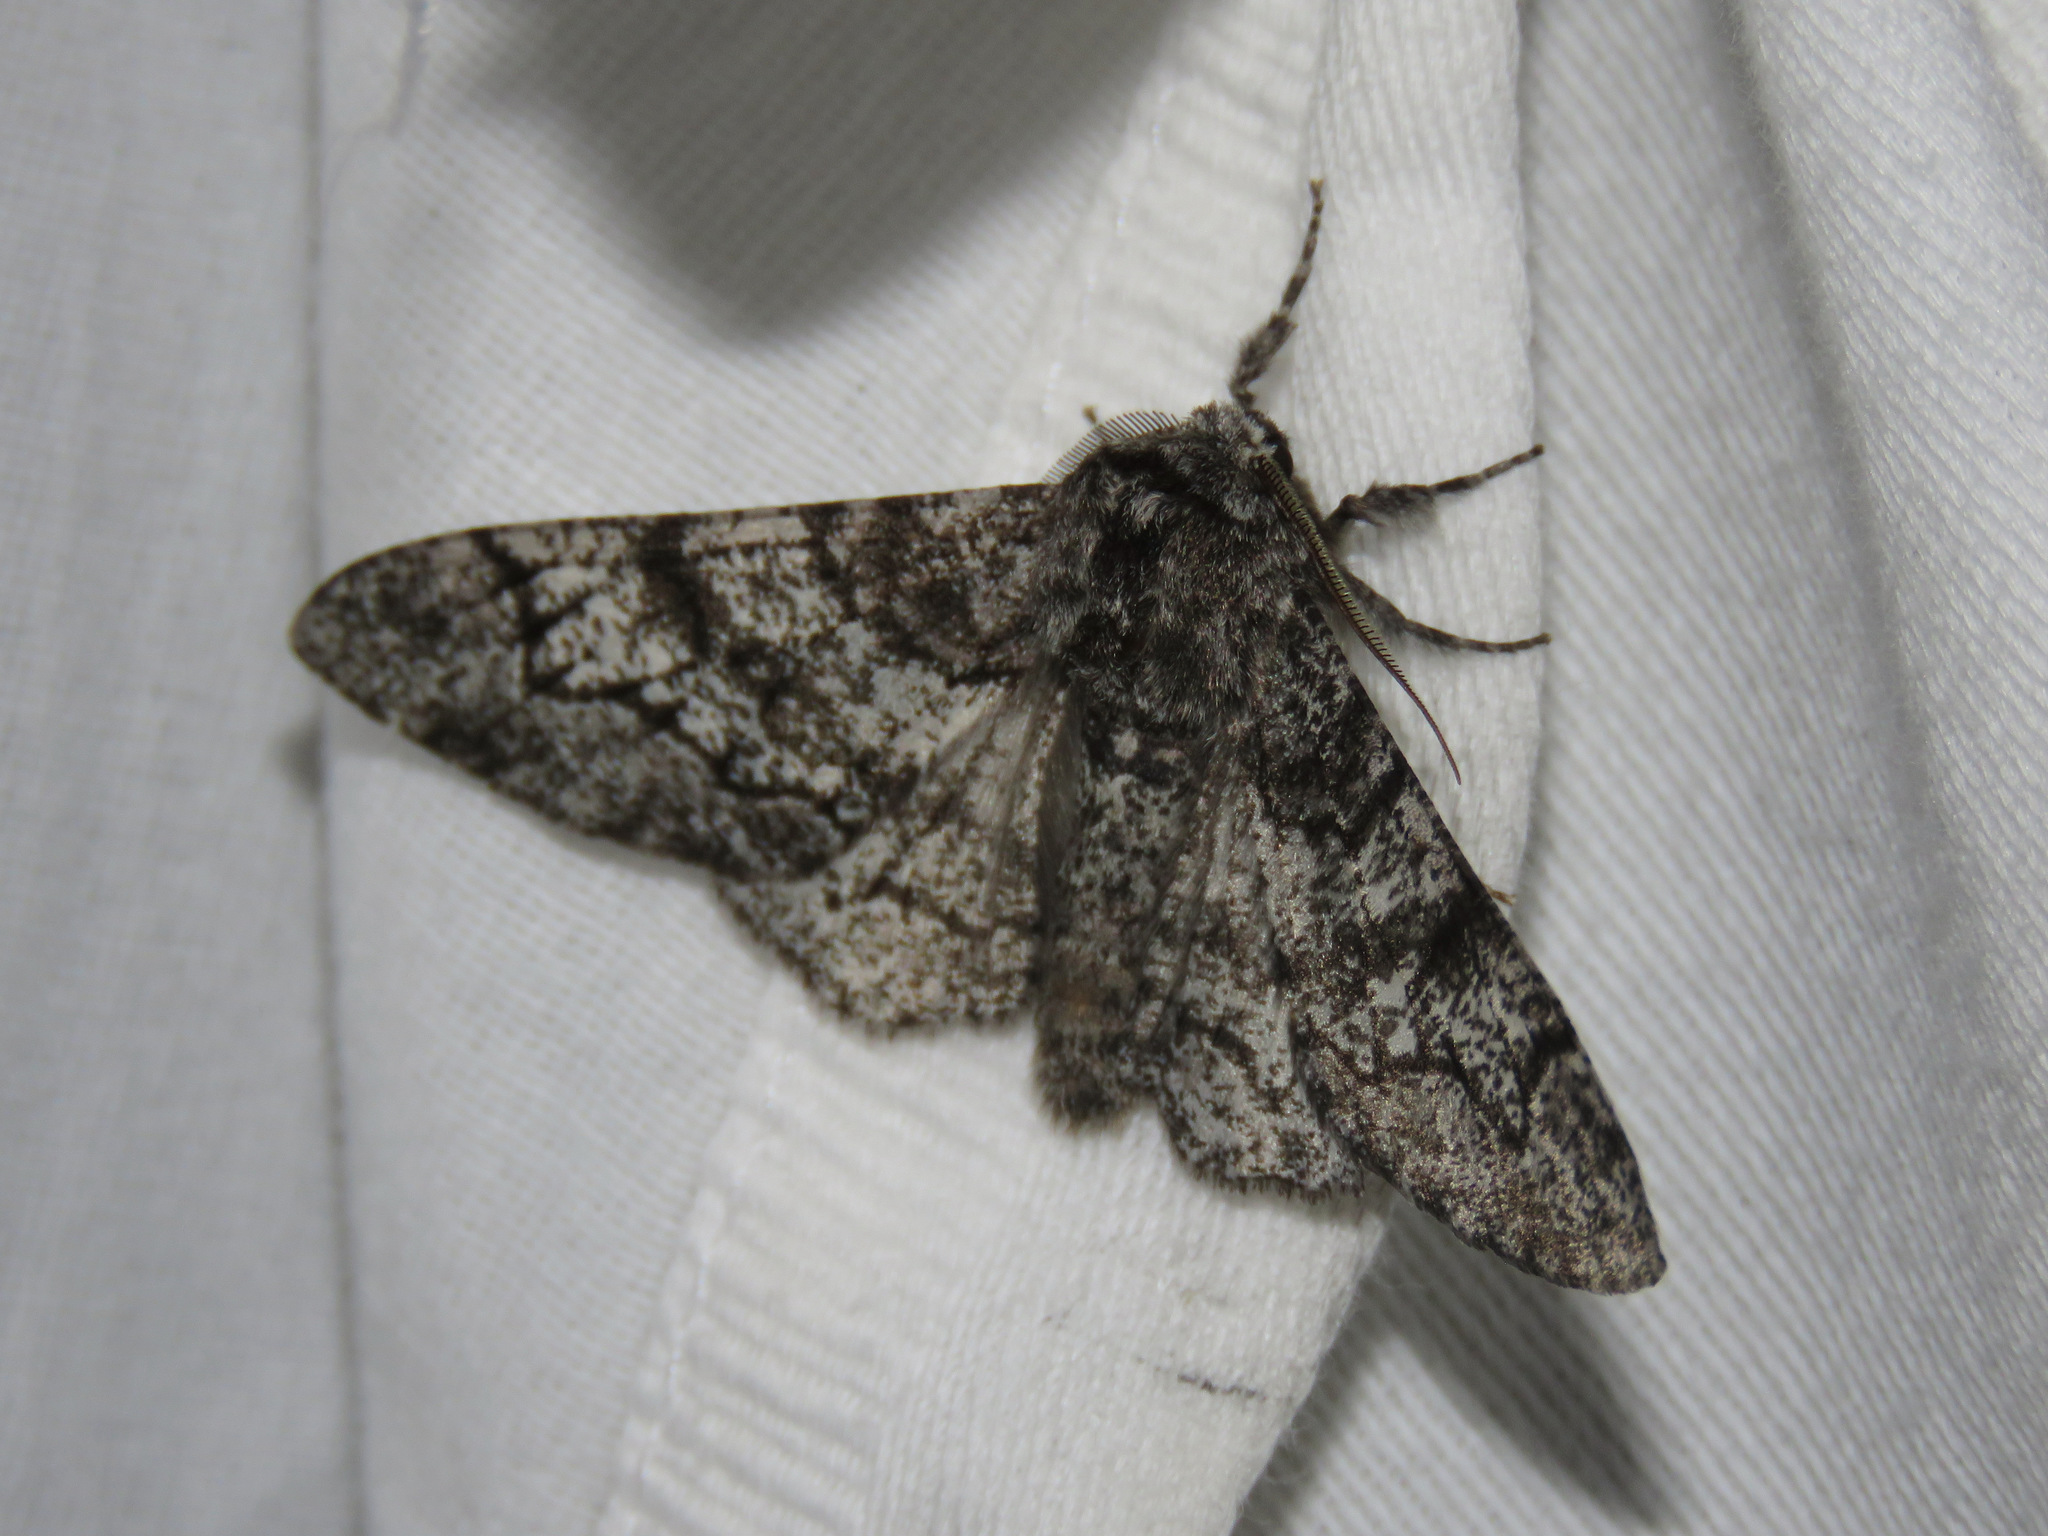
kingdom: Animalia
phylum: Arthropoda
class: Insecta
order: Lepidoptera
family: Geometridae
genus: Biston
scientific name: Biston betularia
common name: Peppered moth
